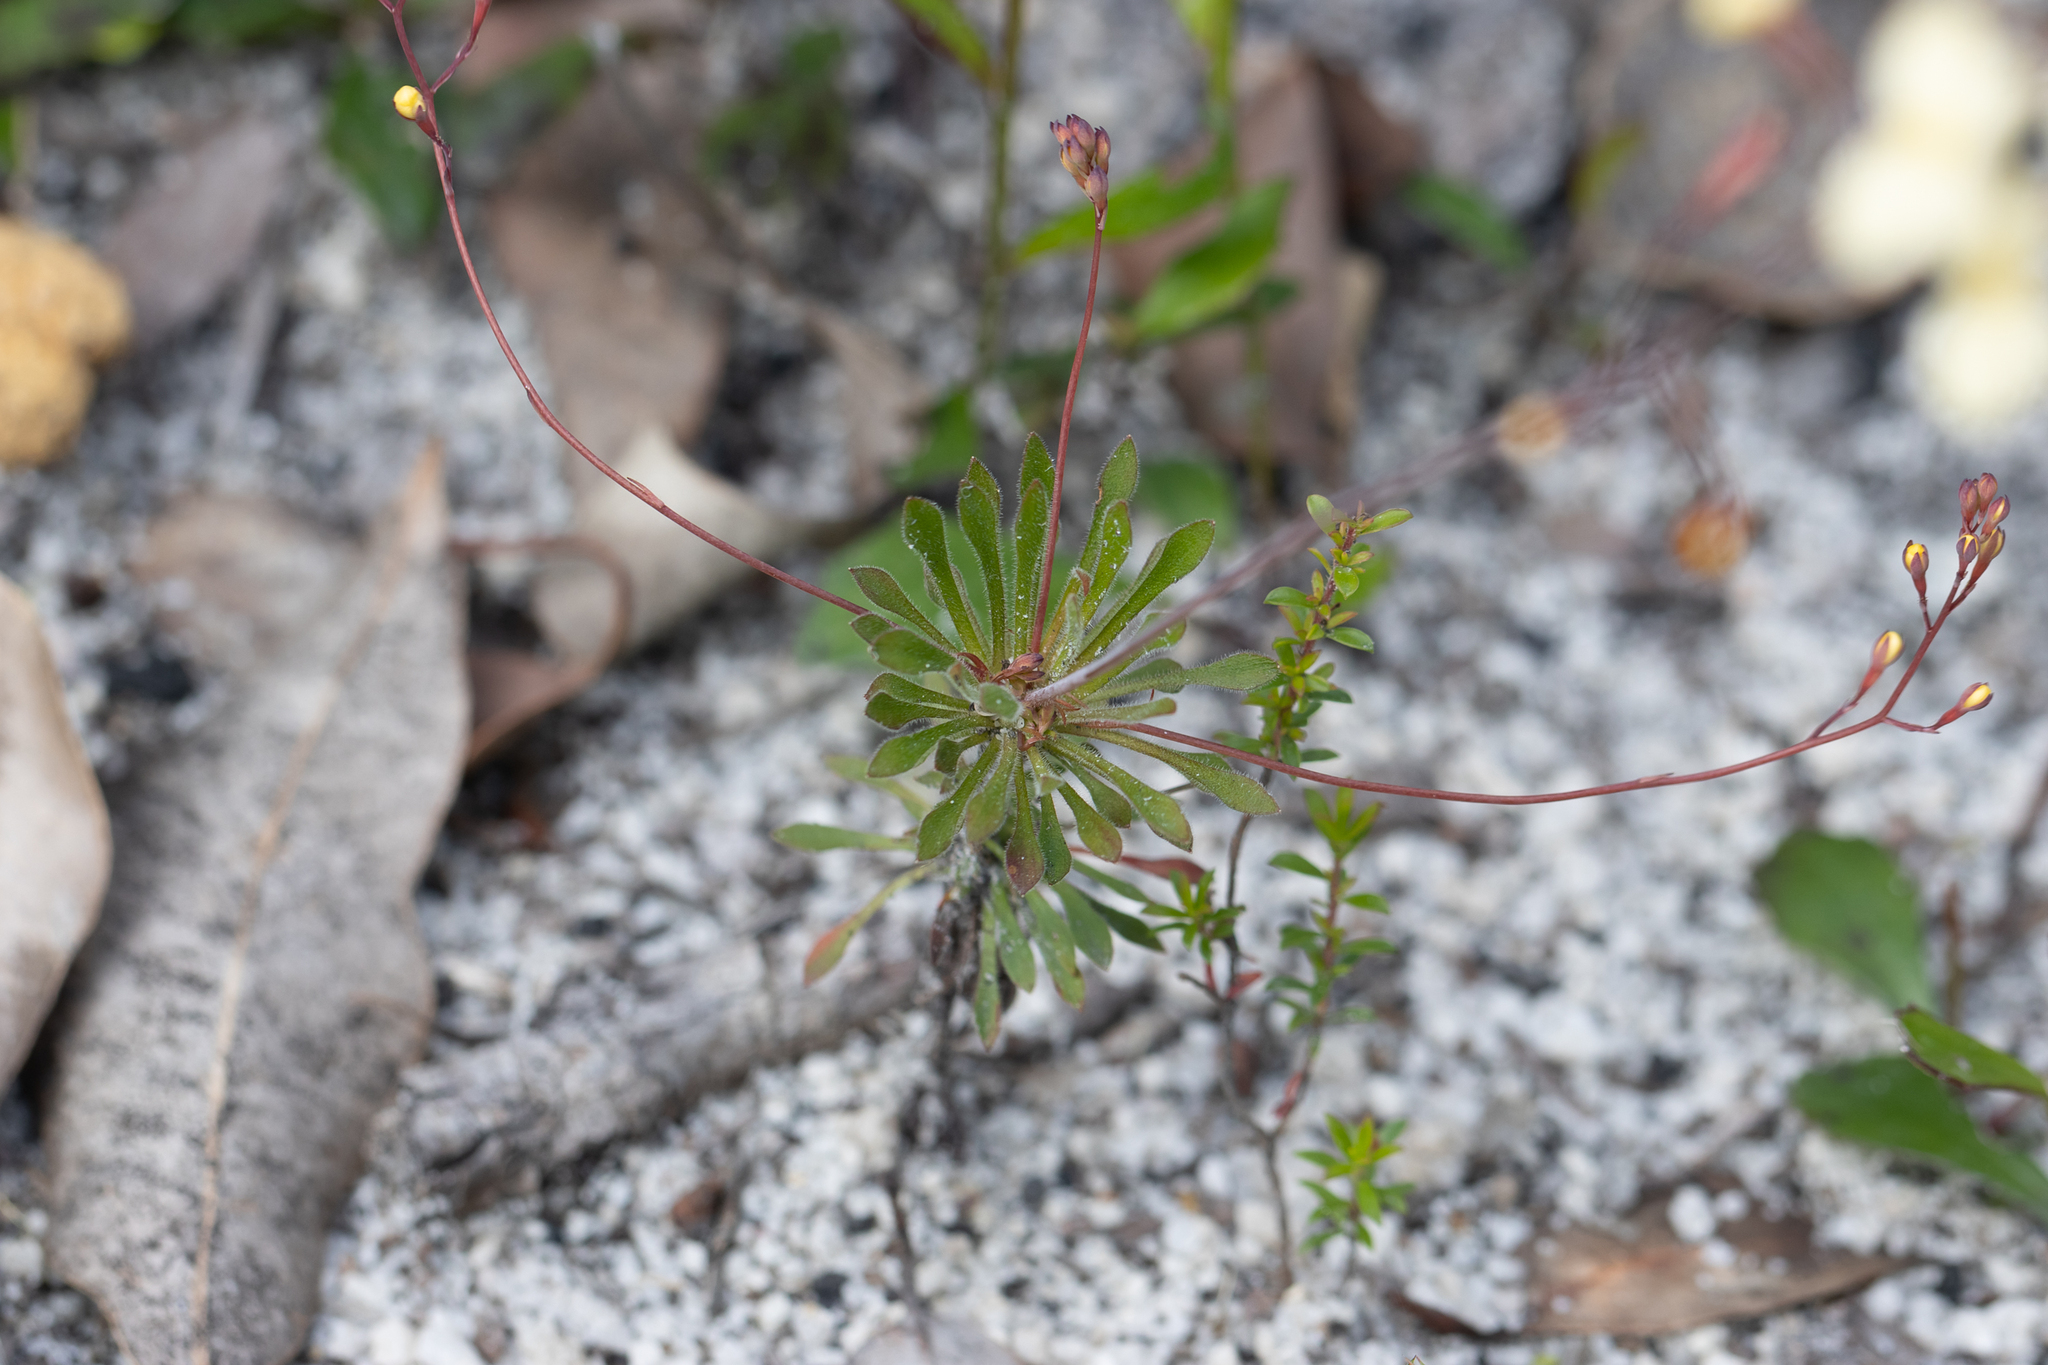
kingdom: Plantae
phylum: Tracheophyta
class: Magnoliopsida
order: Asterales
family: Stylidiaceae
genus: Stylidium
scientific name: Stylidium acuminatum
